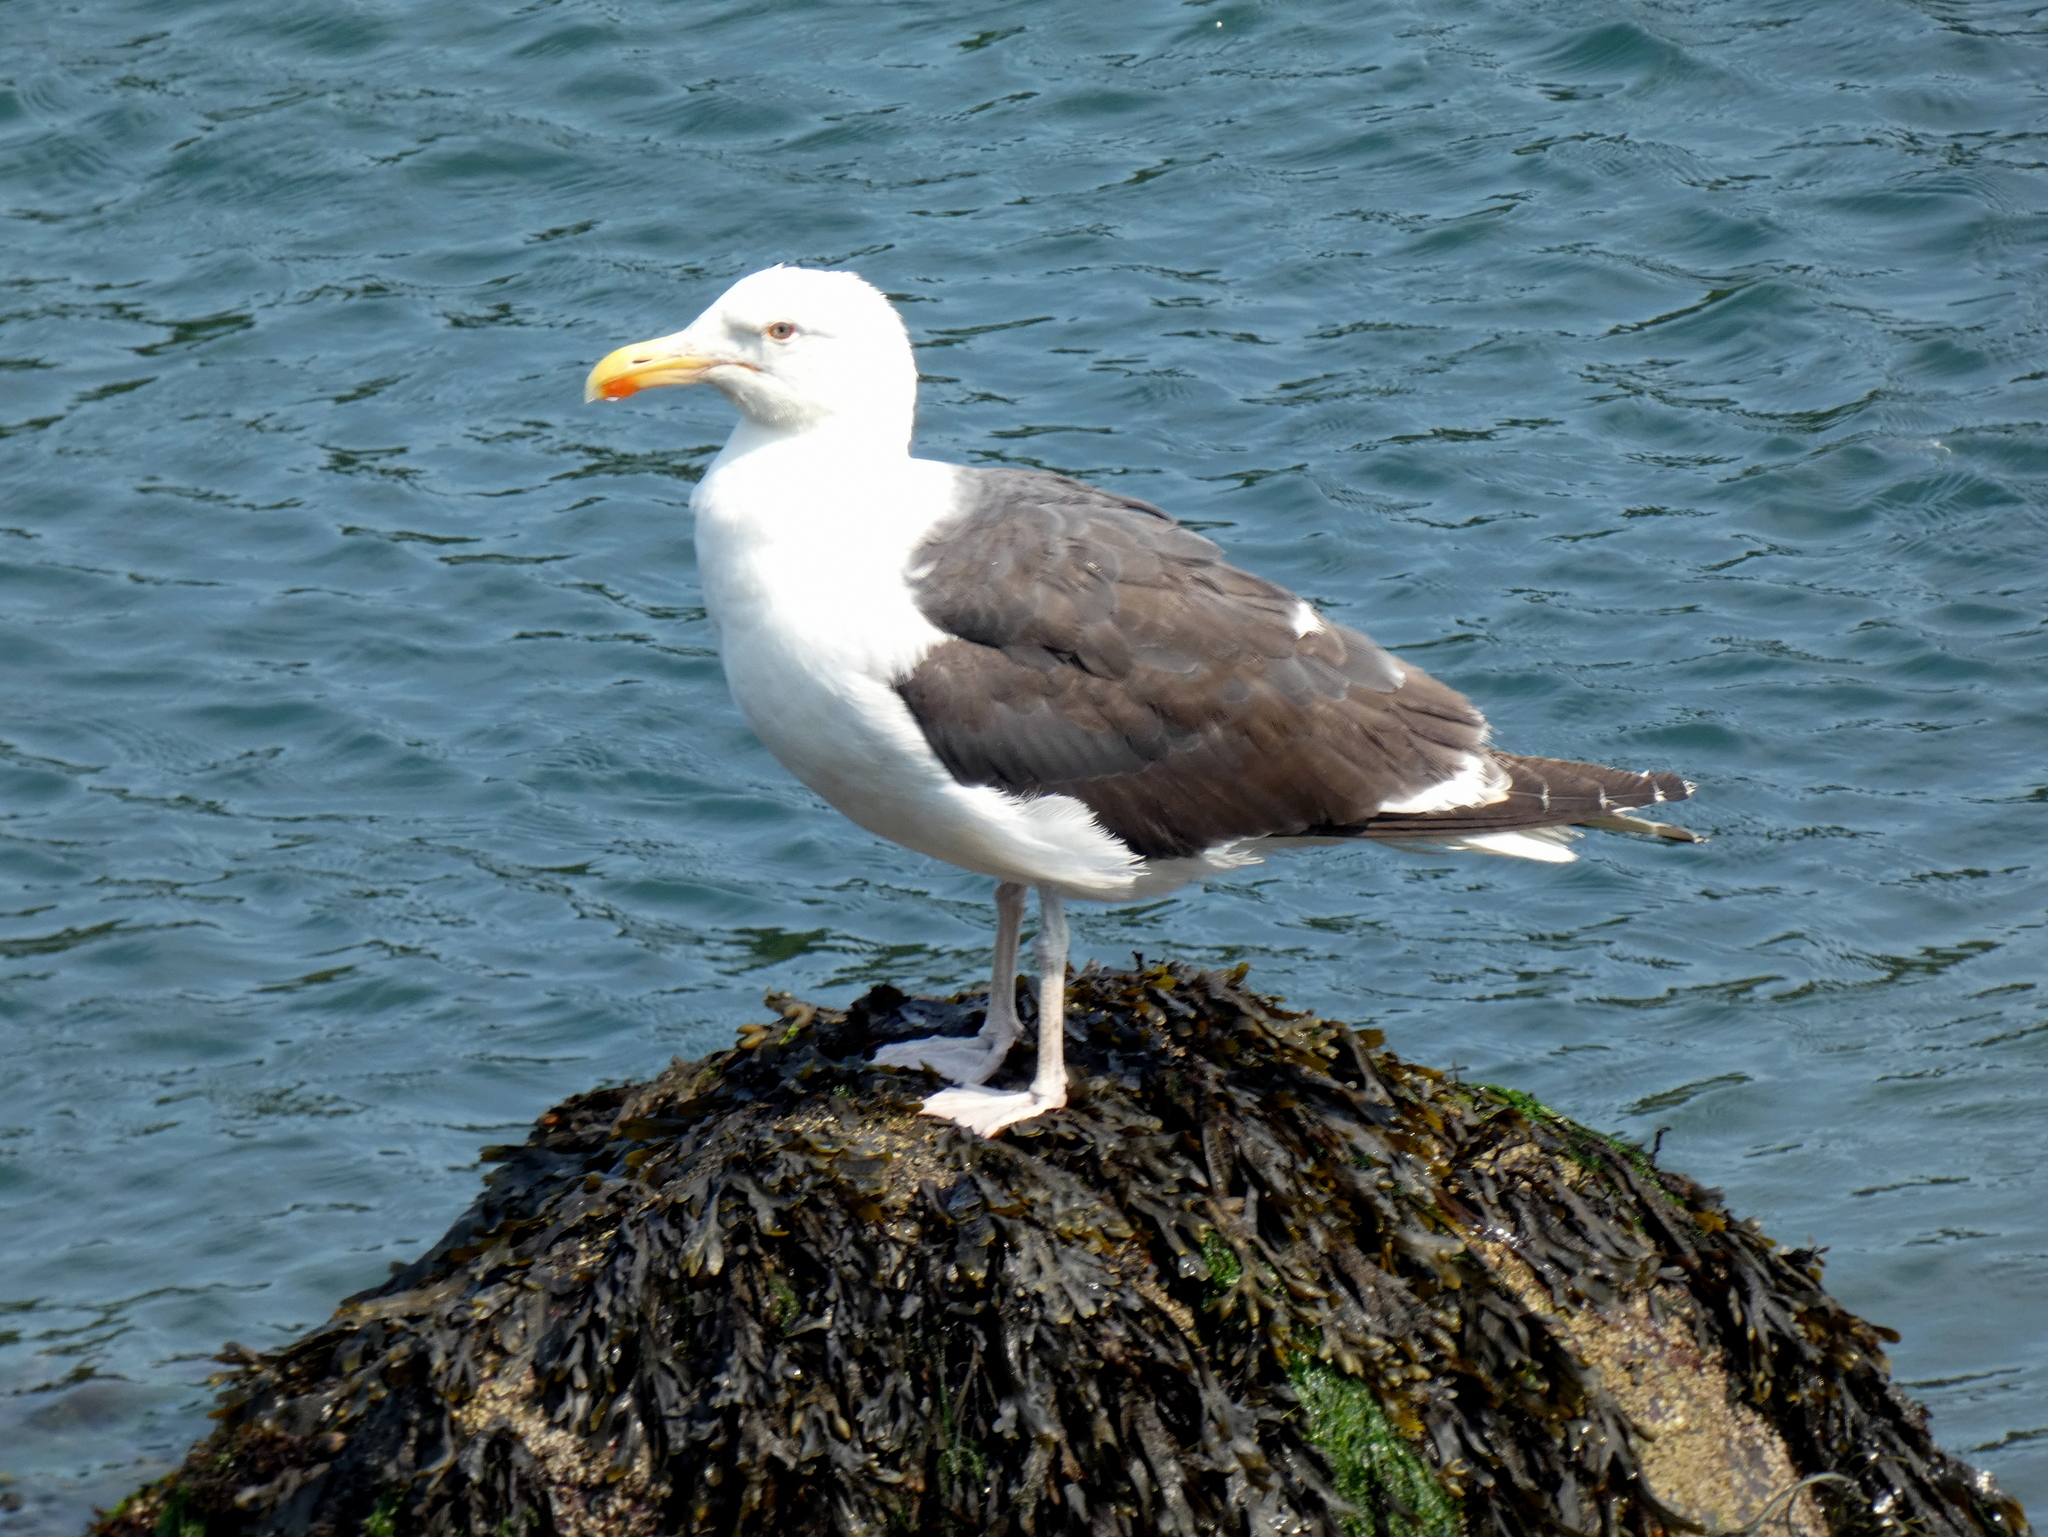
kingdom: Animalia
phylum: Chordata
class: Aves
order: Charadriiformes
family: Laridae
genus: Larus
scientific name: Larus marinus
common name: Great black-backed gull
